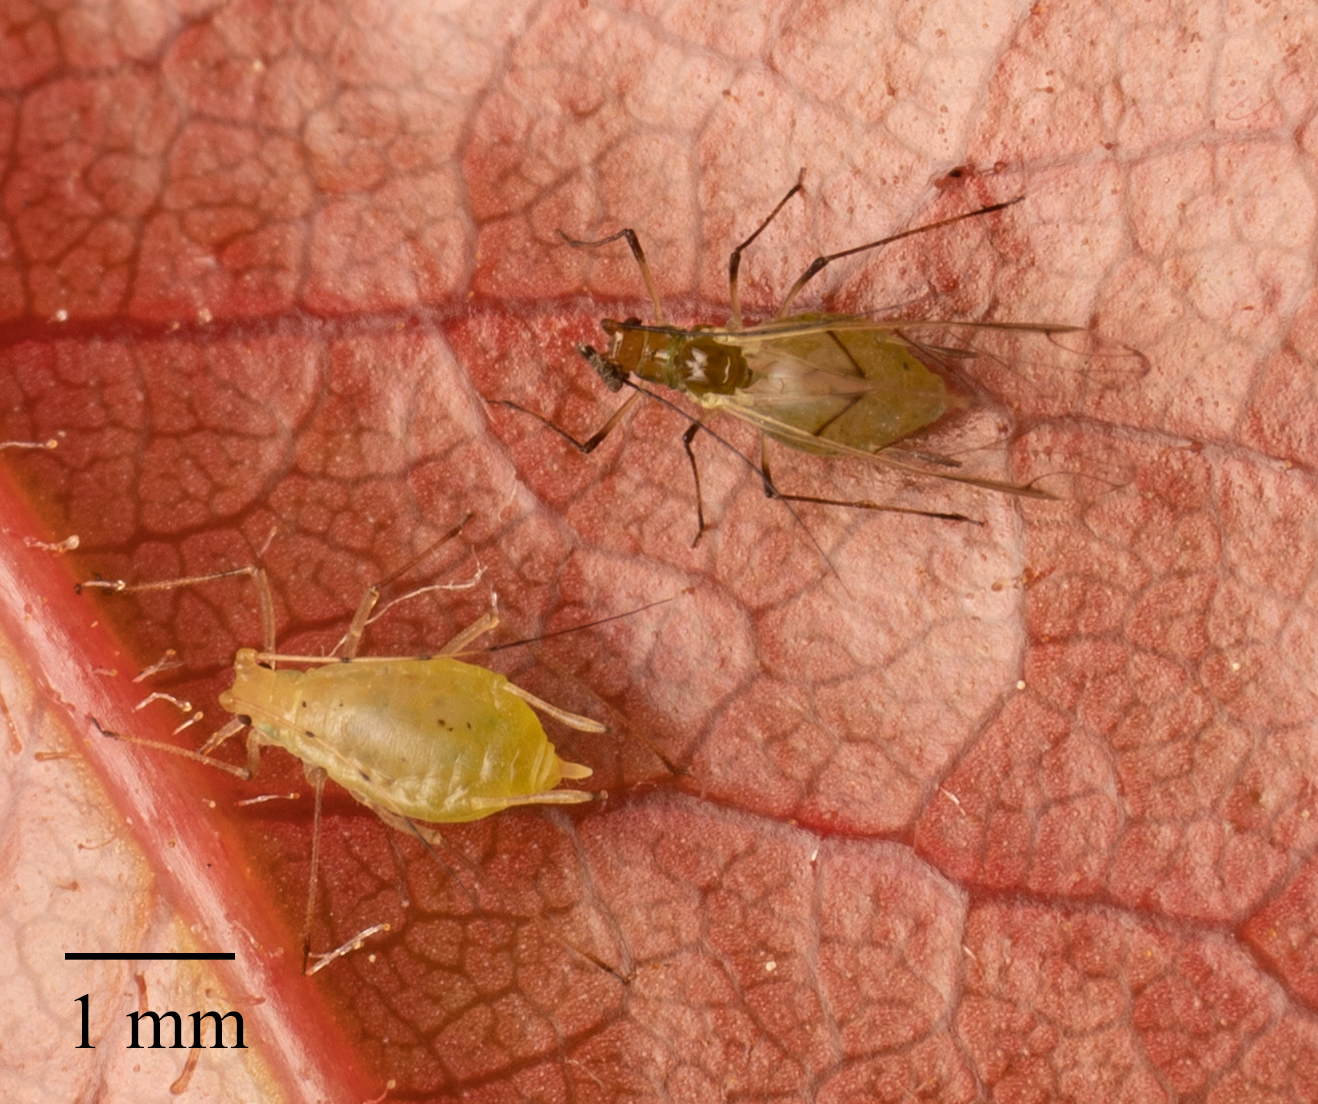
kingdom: Animalia
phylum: Arthropoda
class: Insecta
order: Hemiptera
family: Aphididae
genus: Wahlgreniella
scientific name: Wahlgreniella nervata
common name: Pale green aphid
